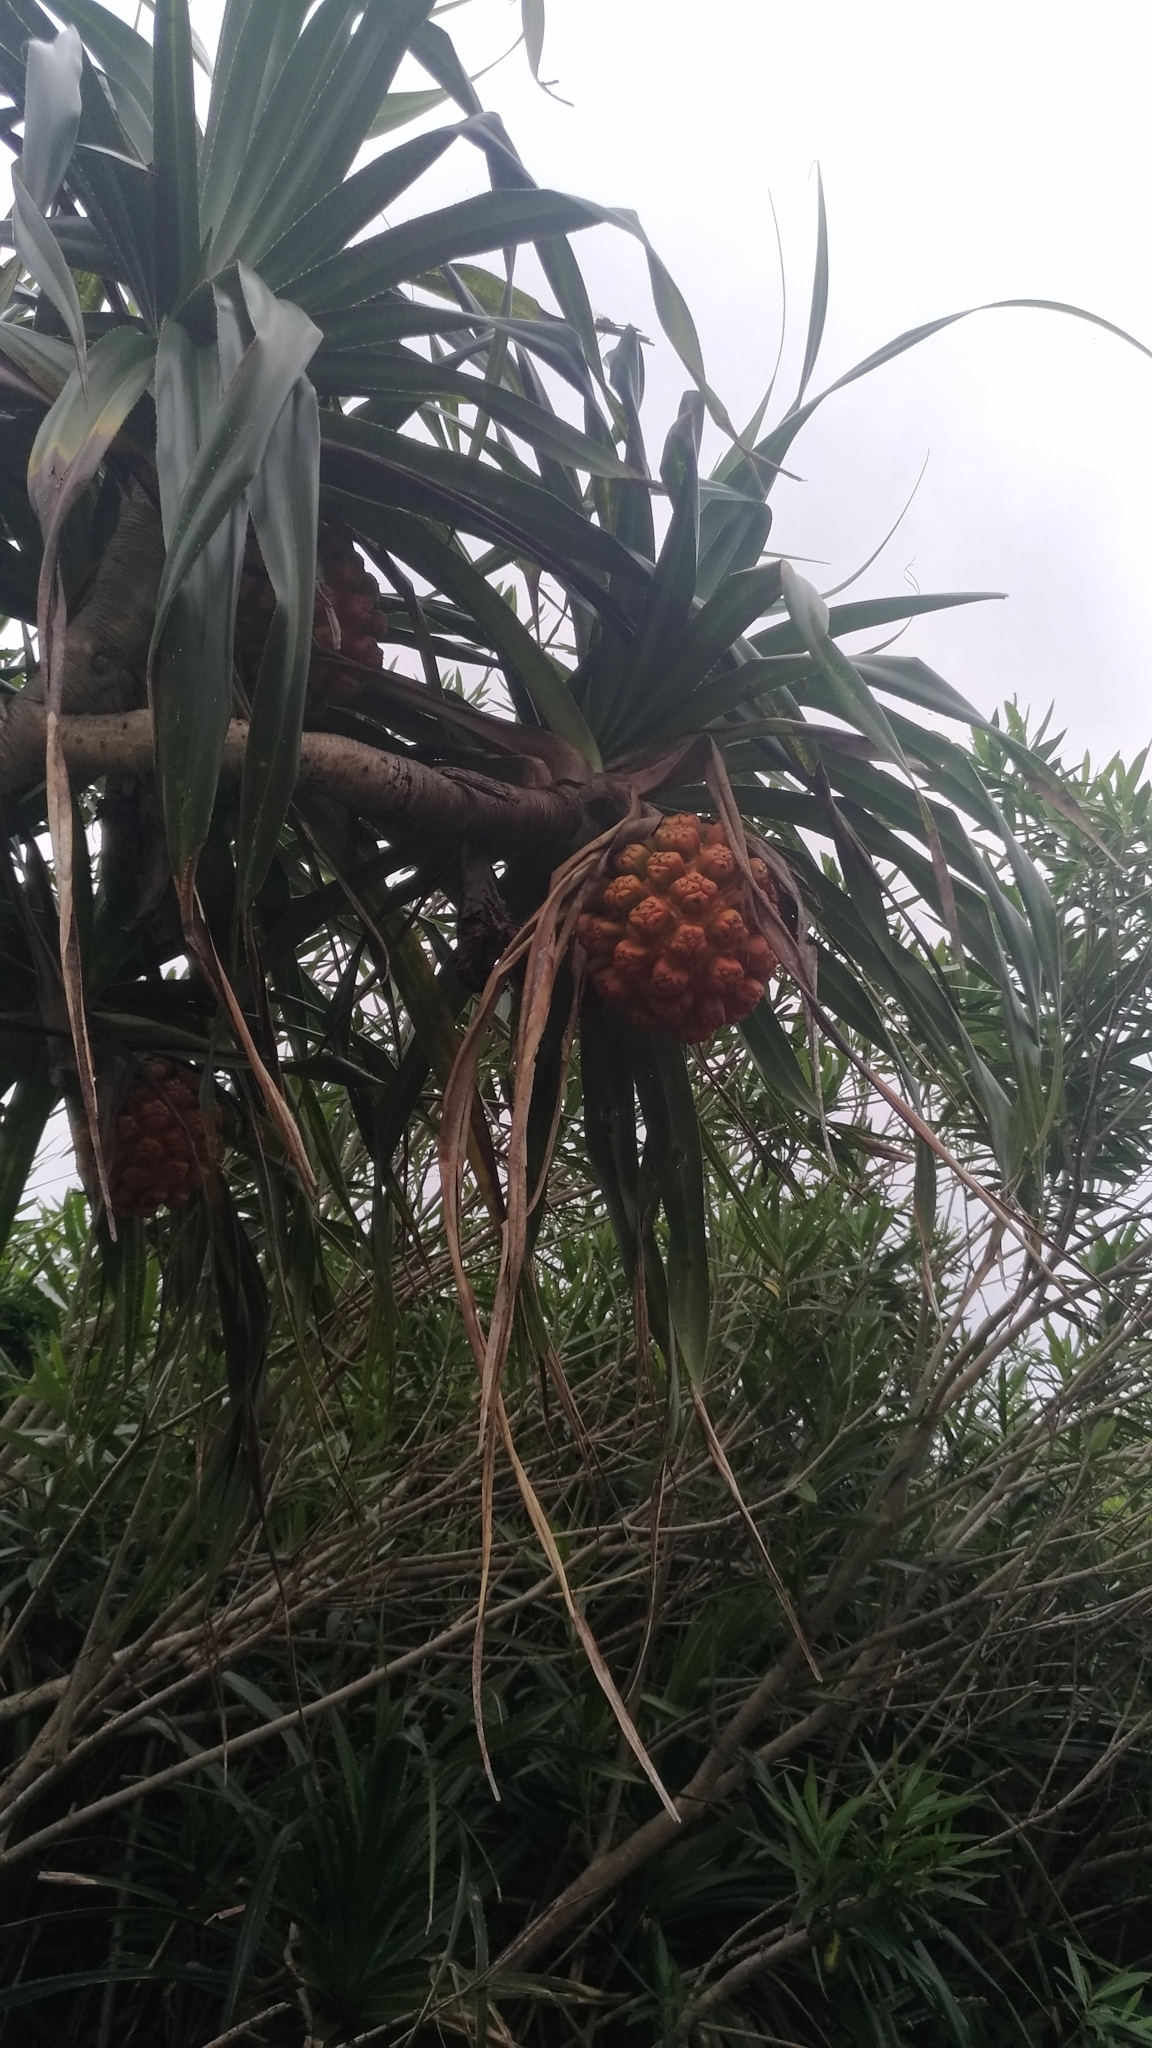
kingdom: Plantae
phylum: Tracheophyta
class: Liliopsida
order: Pandanales
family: Pandanaceae
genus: Pandanus
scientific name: Pandanus odorifer
